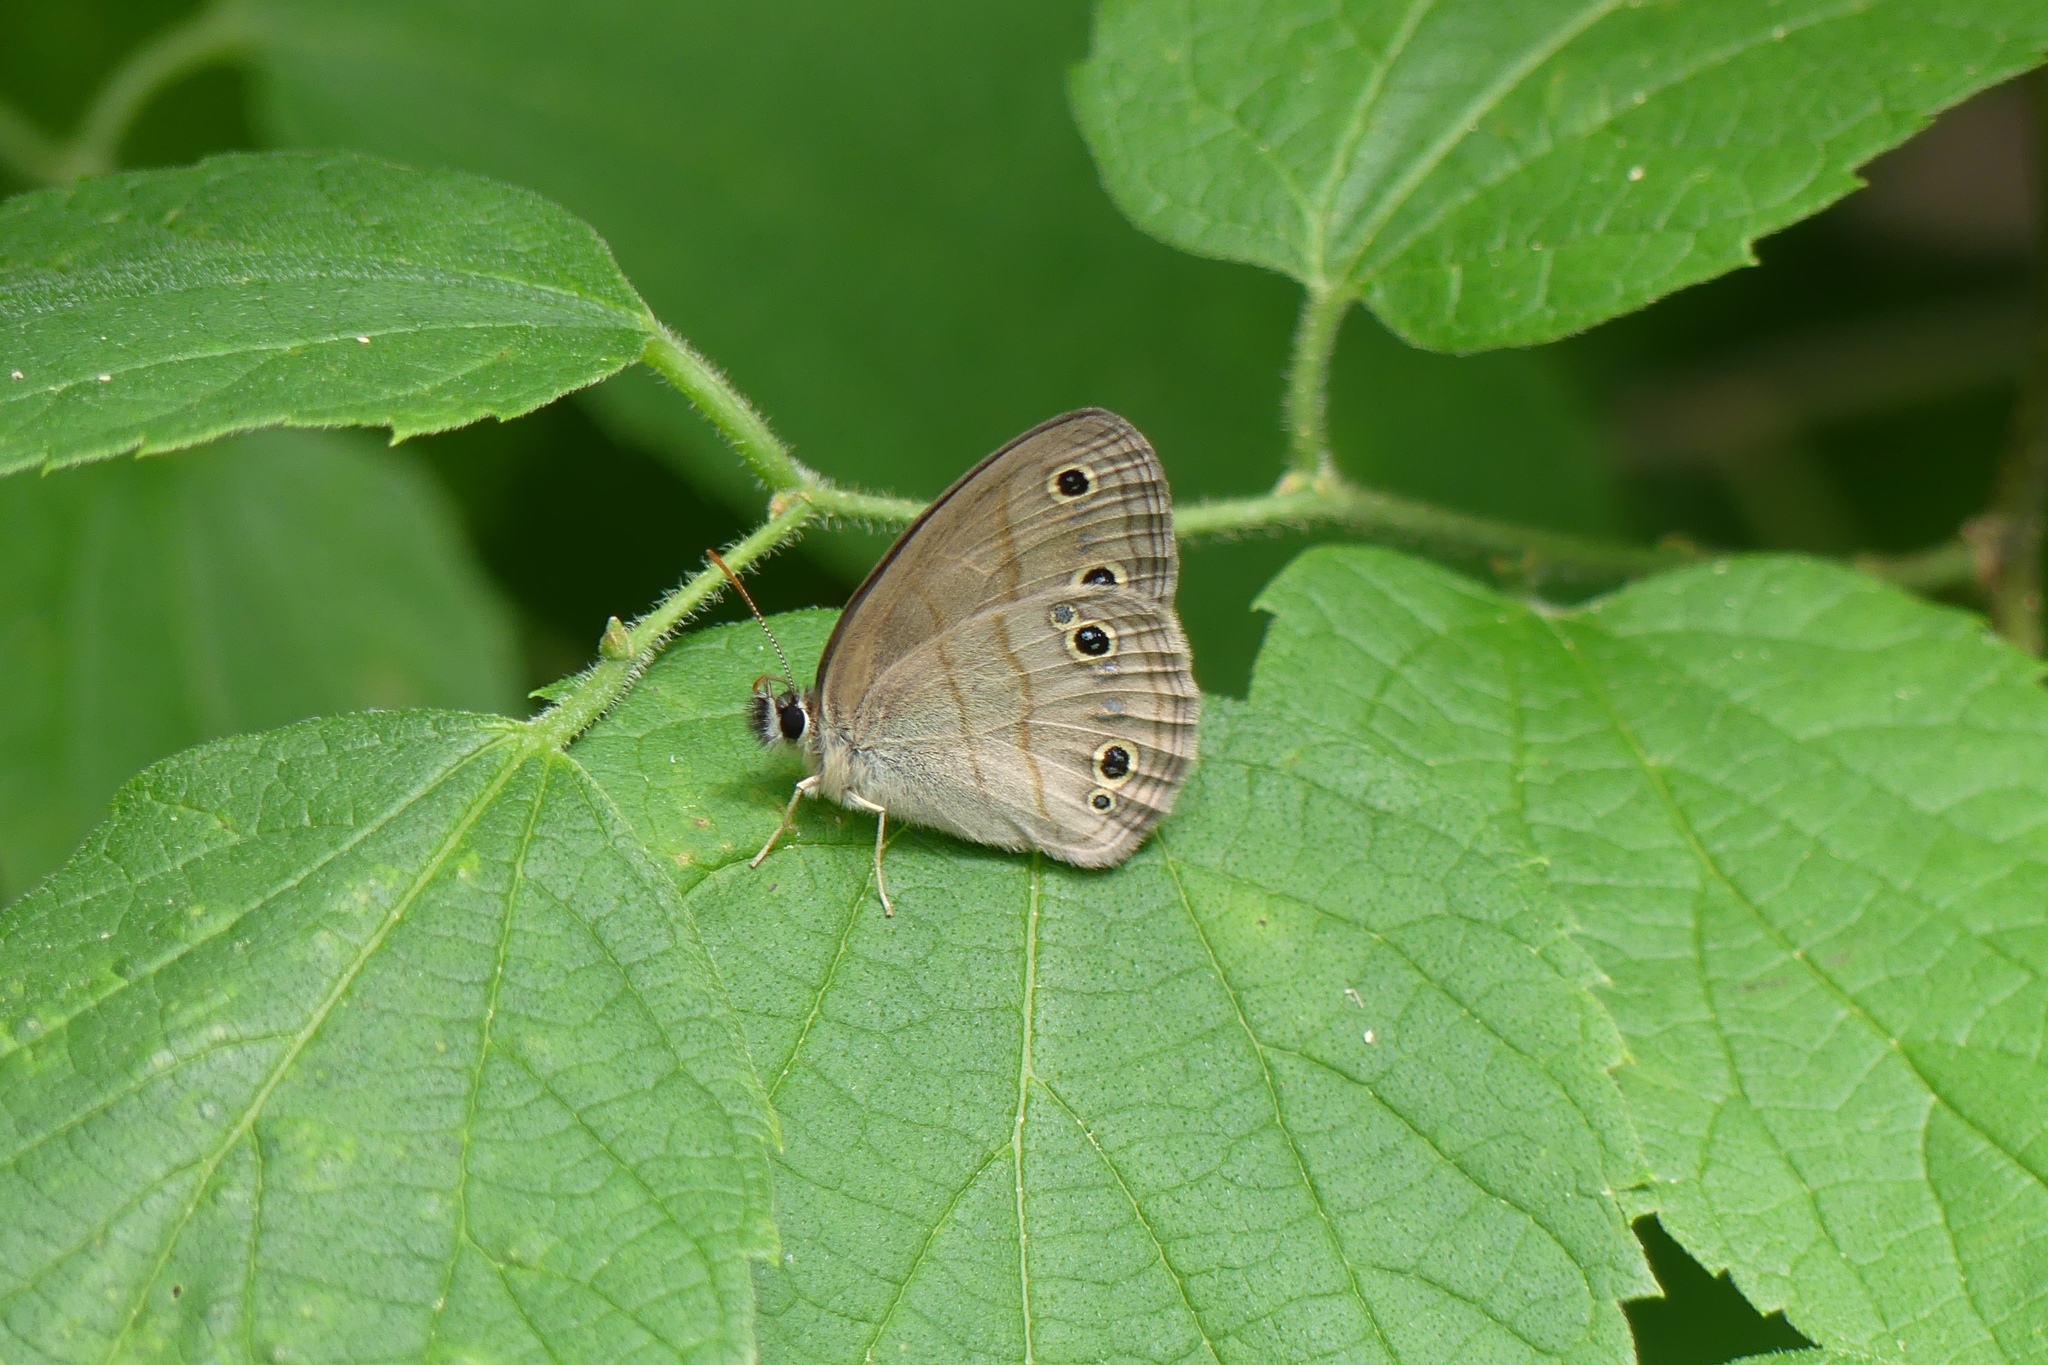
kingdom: Animalia
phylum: Arthropoda
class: Insecta
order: Lepidoptera
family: Nymphalidae
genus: Euptychia
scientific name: Euptychia cymela
